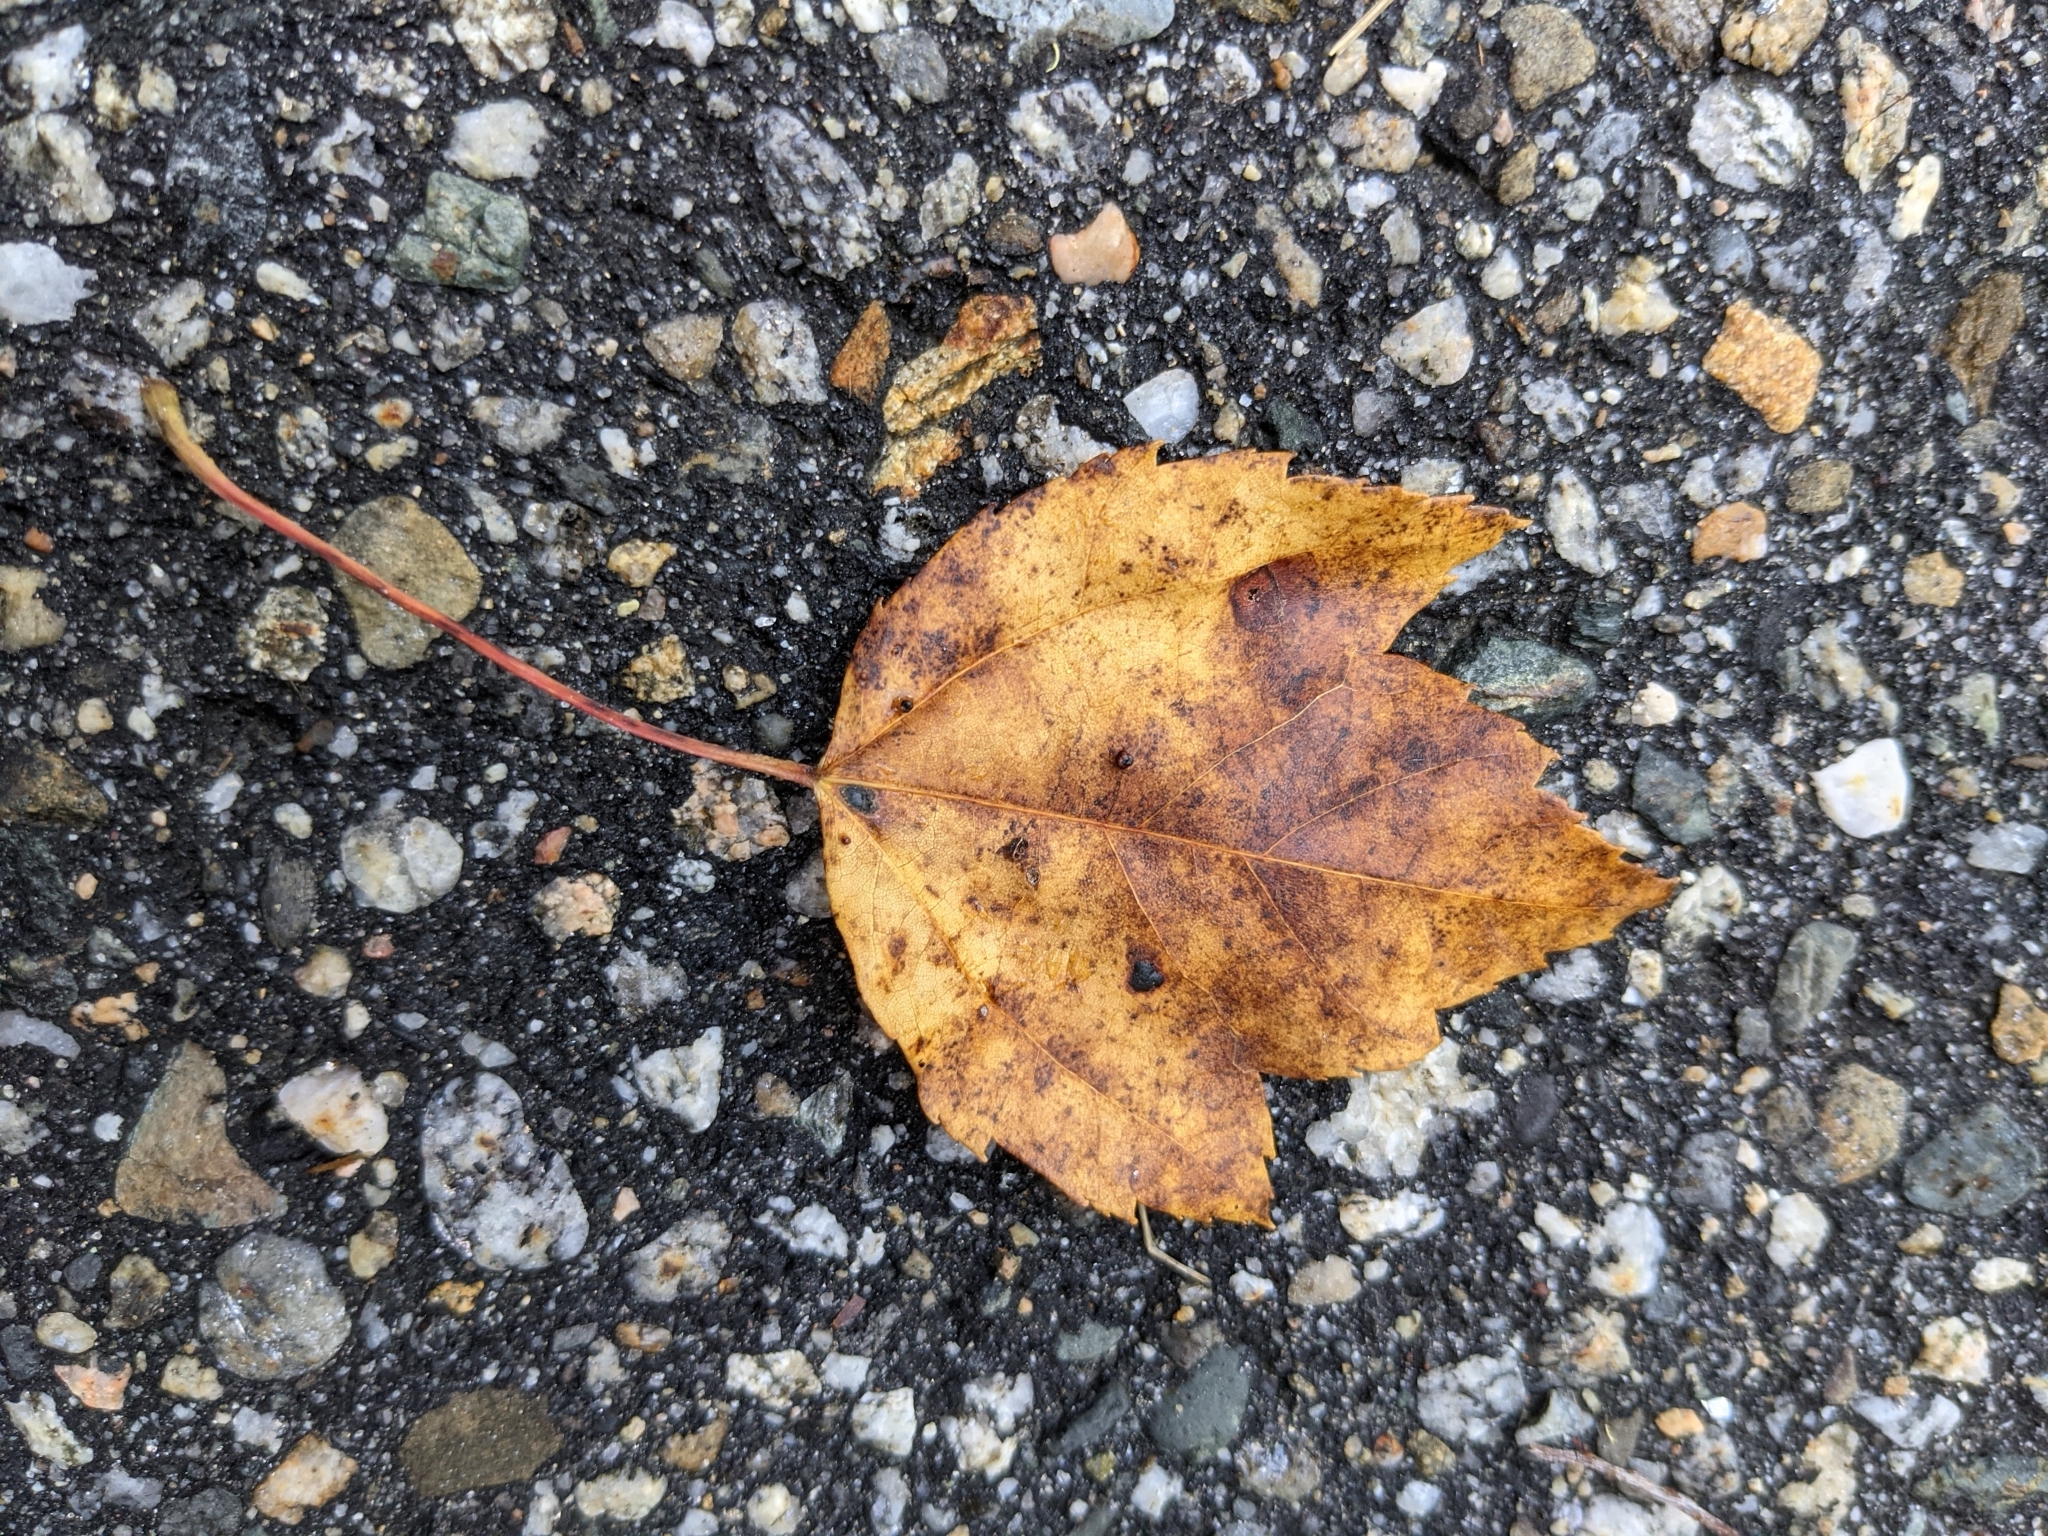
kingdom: Plantae
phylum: Tracheophyta
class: Magnoliopsida
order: Sapindales
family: Sapindaceae
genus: Acer
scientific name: Acer rubrum
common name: Red maple
